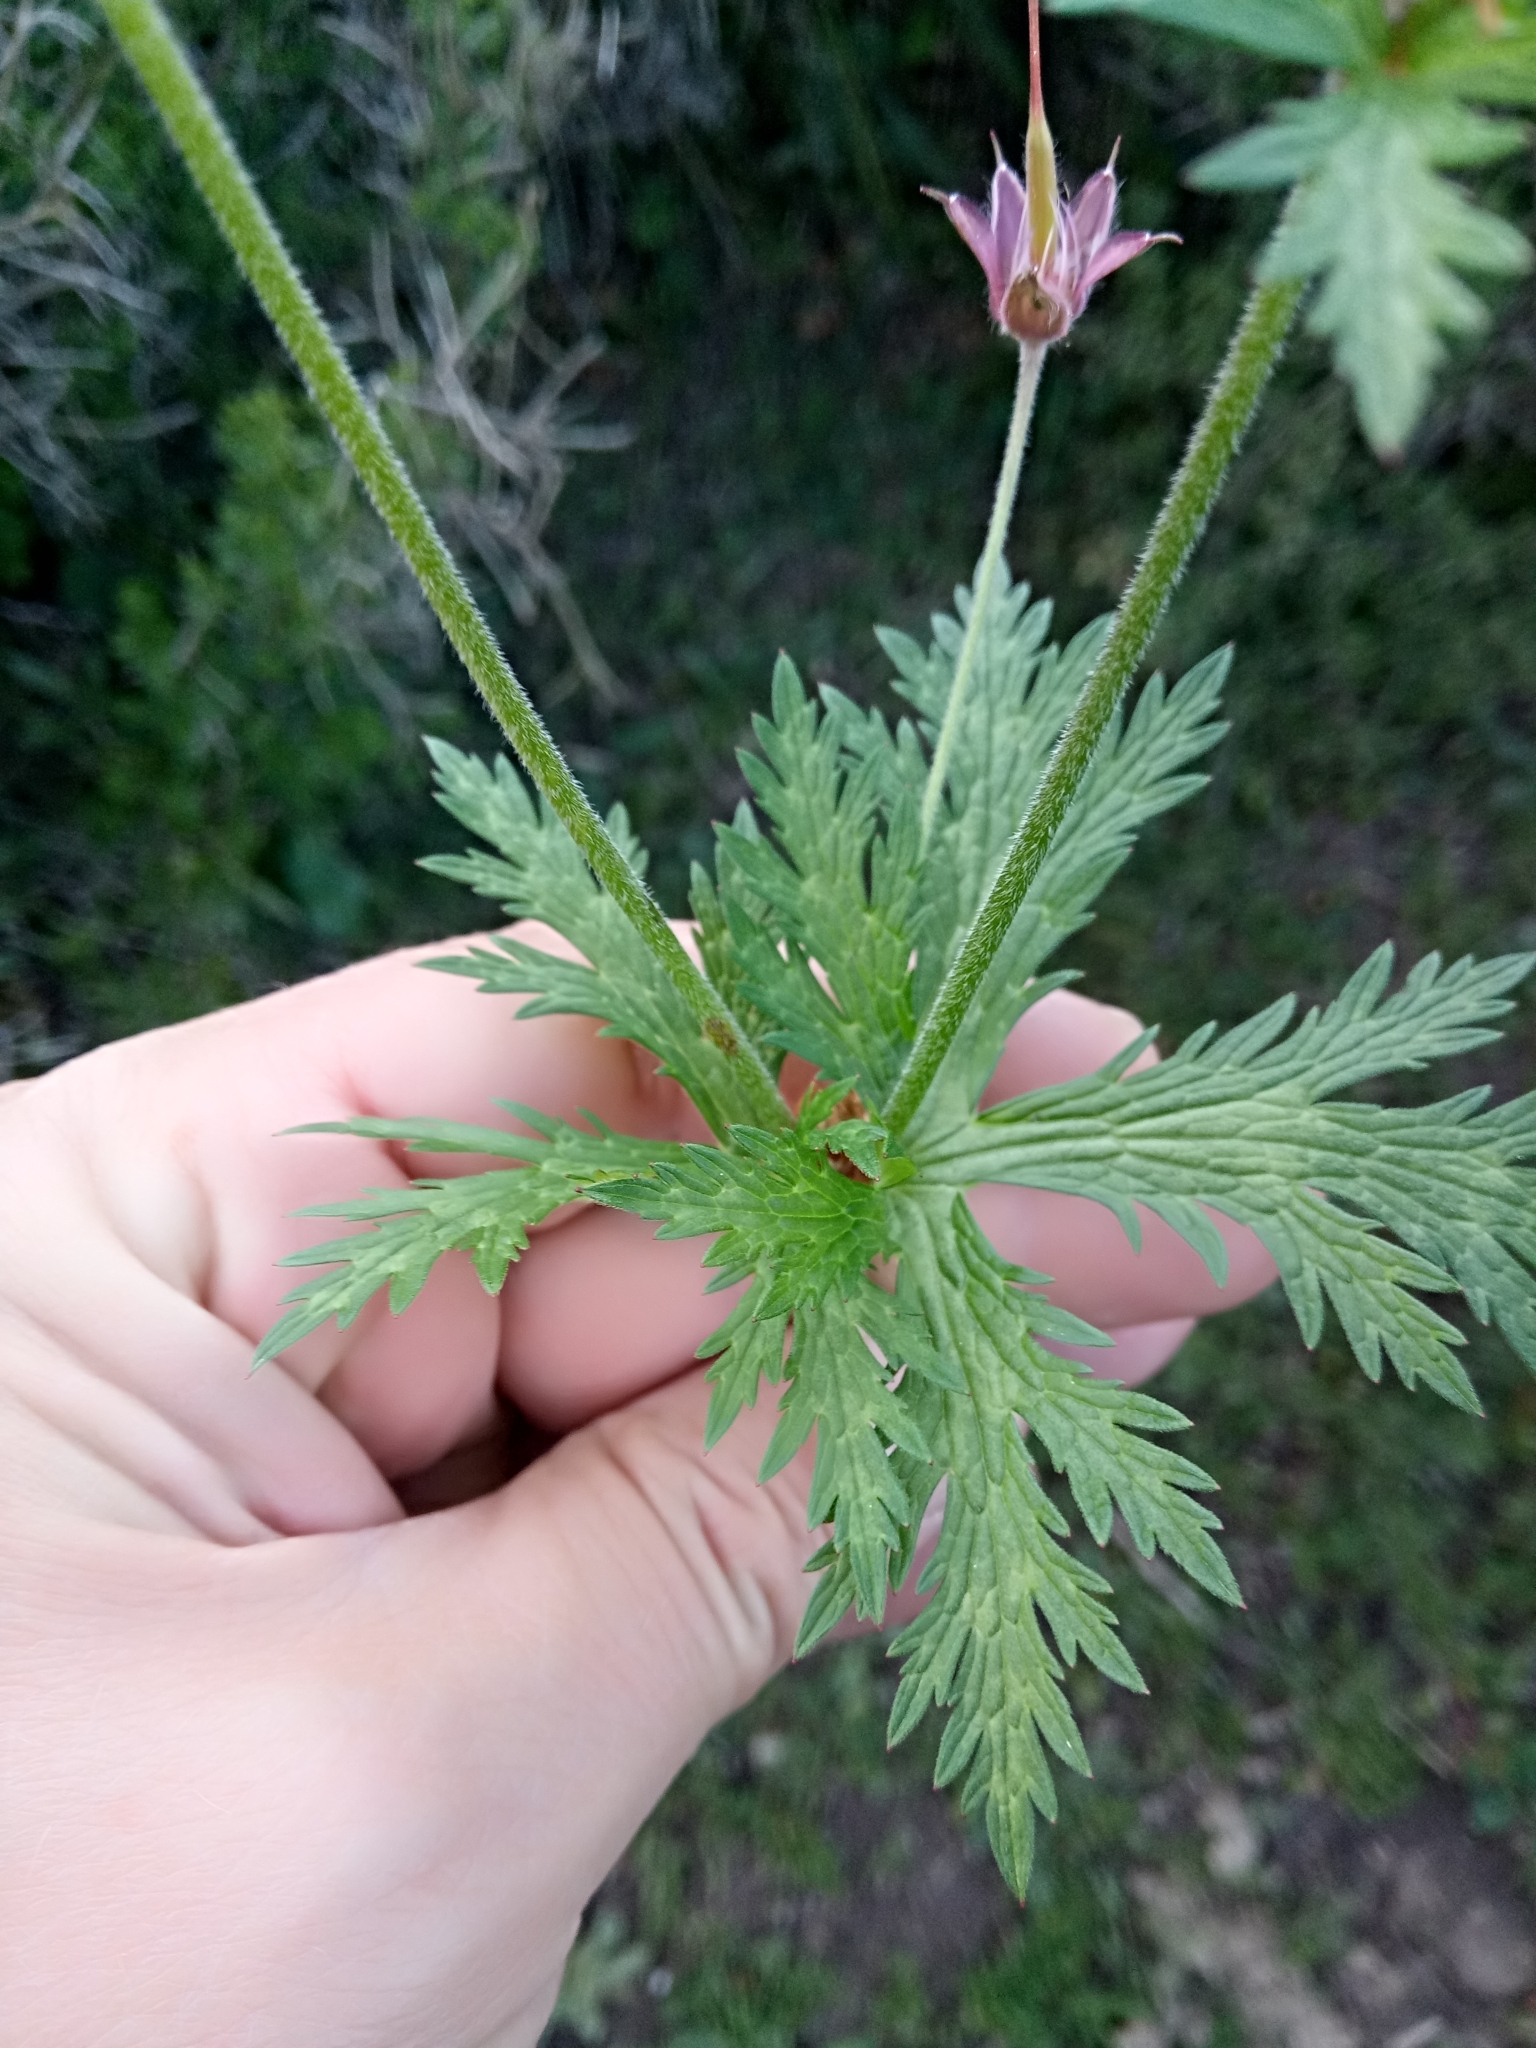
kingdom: Plantae
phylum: Tracheophyta
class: Magnoliopsida
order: Geraniales
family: Geraniaceae
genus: Geranium
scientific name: Geranium atlanticum
